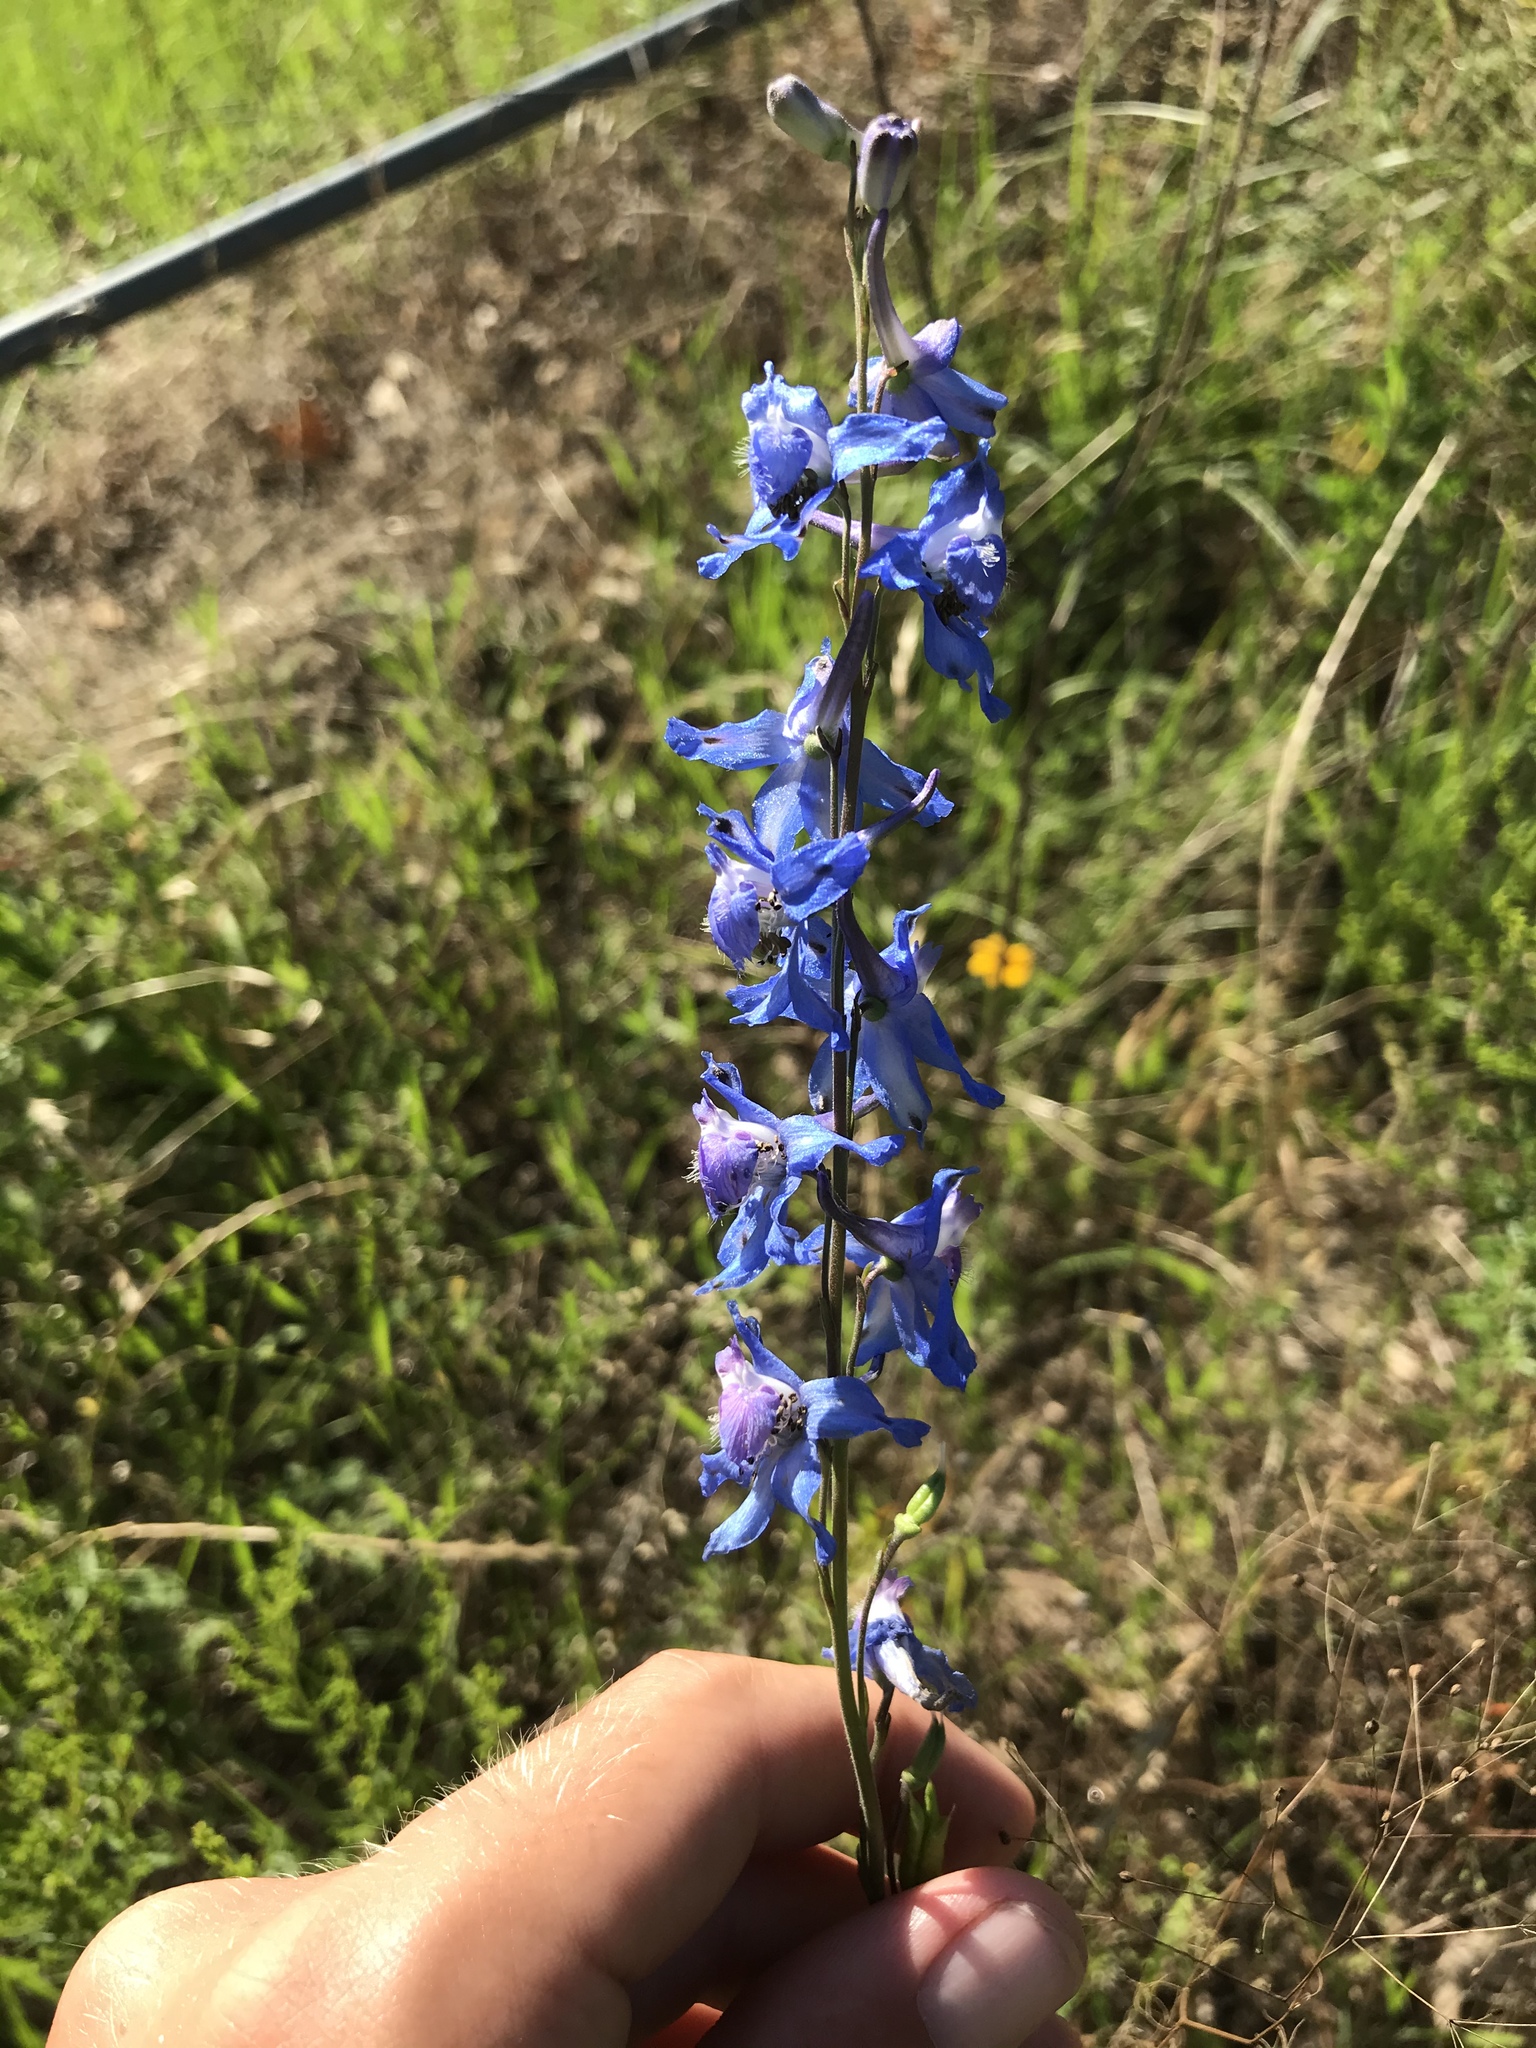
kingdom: Plantae
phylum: Tracheophyta
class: Magnoliopsida
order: Ranunculales
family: Ranunculaceae
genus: Delphinium
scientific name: Delphinium carolinianum
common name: Carolina larkspur
